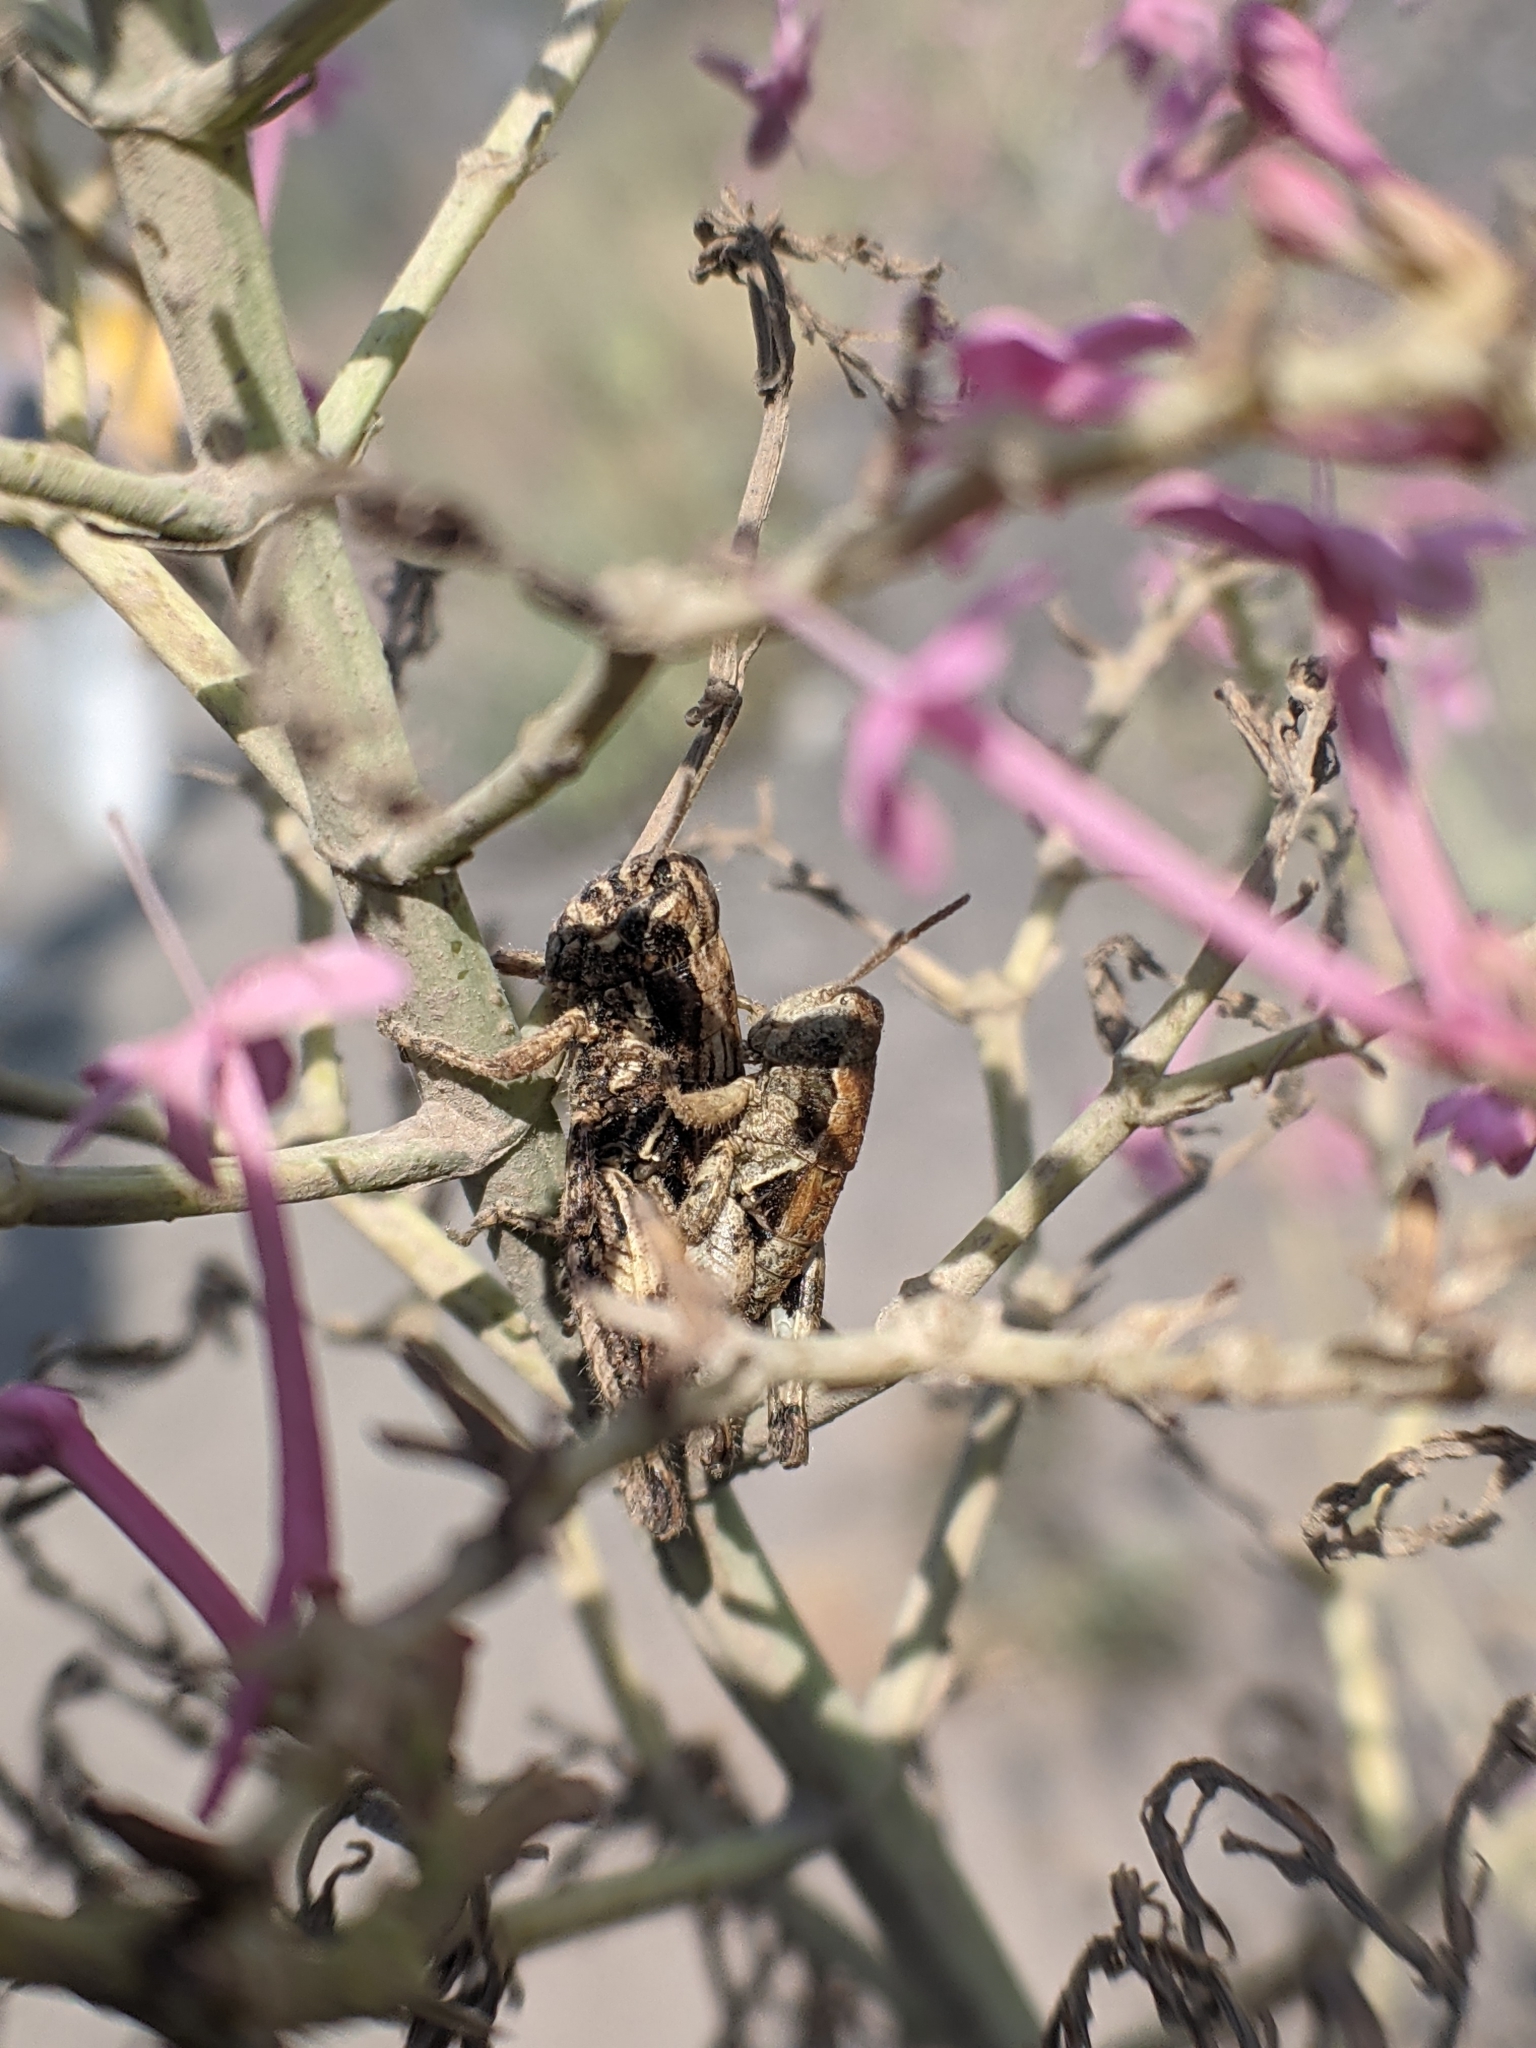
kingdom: Animalia
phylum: Arthropoda
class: Insecta
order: Orthoptera
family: Acrididae
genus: Pezotettix
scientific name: Pezotettix giornae
